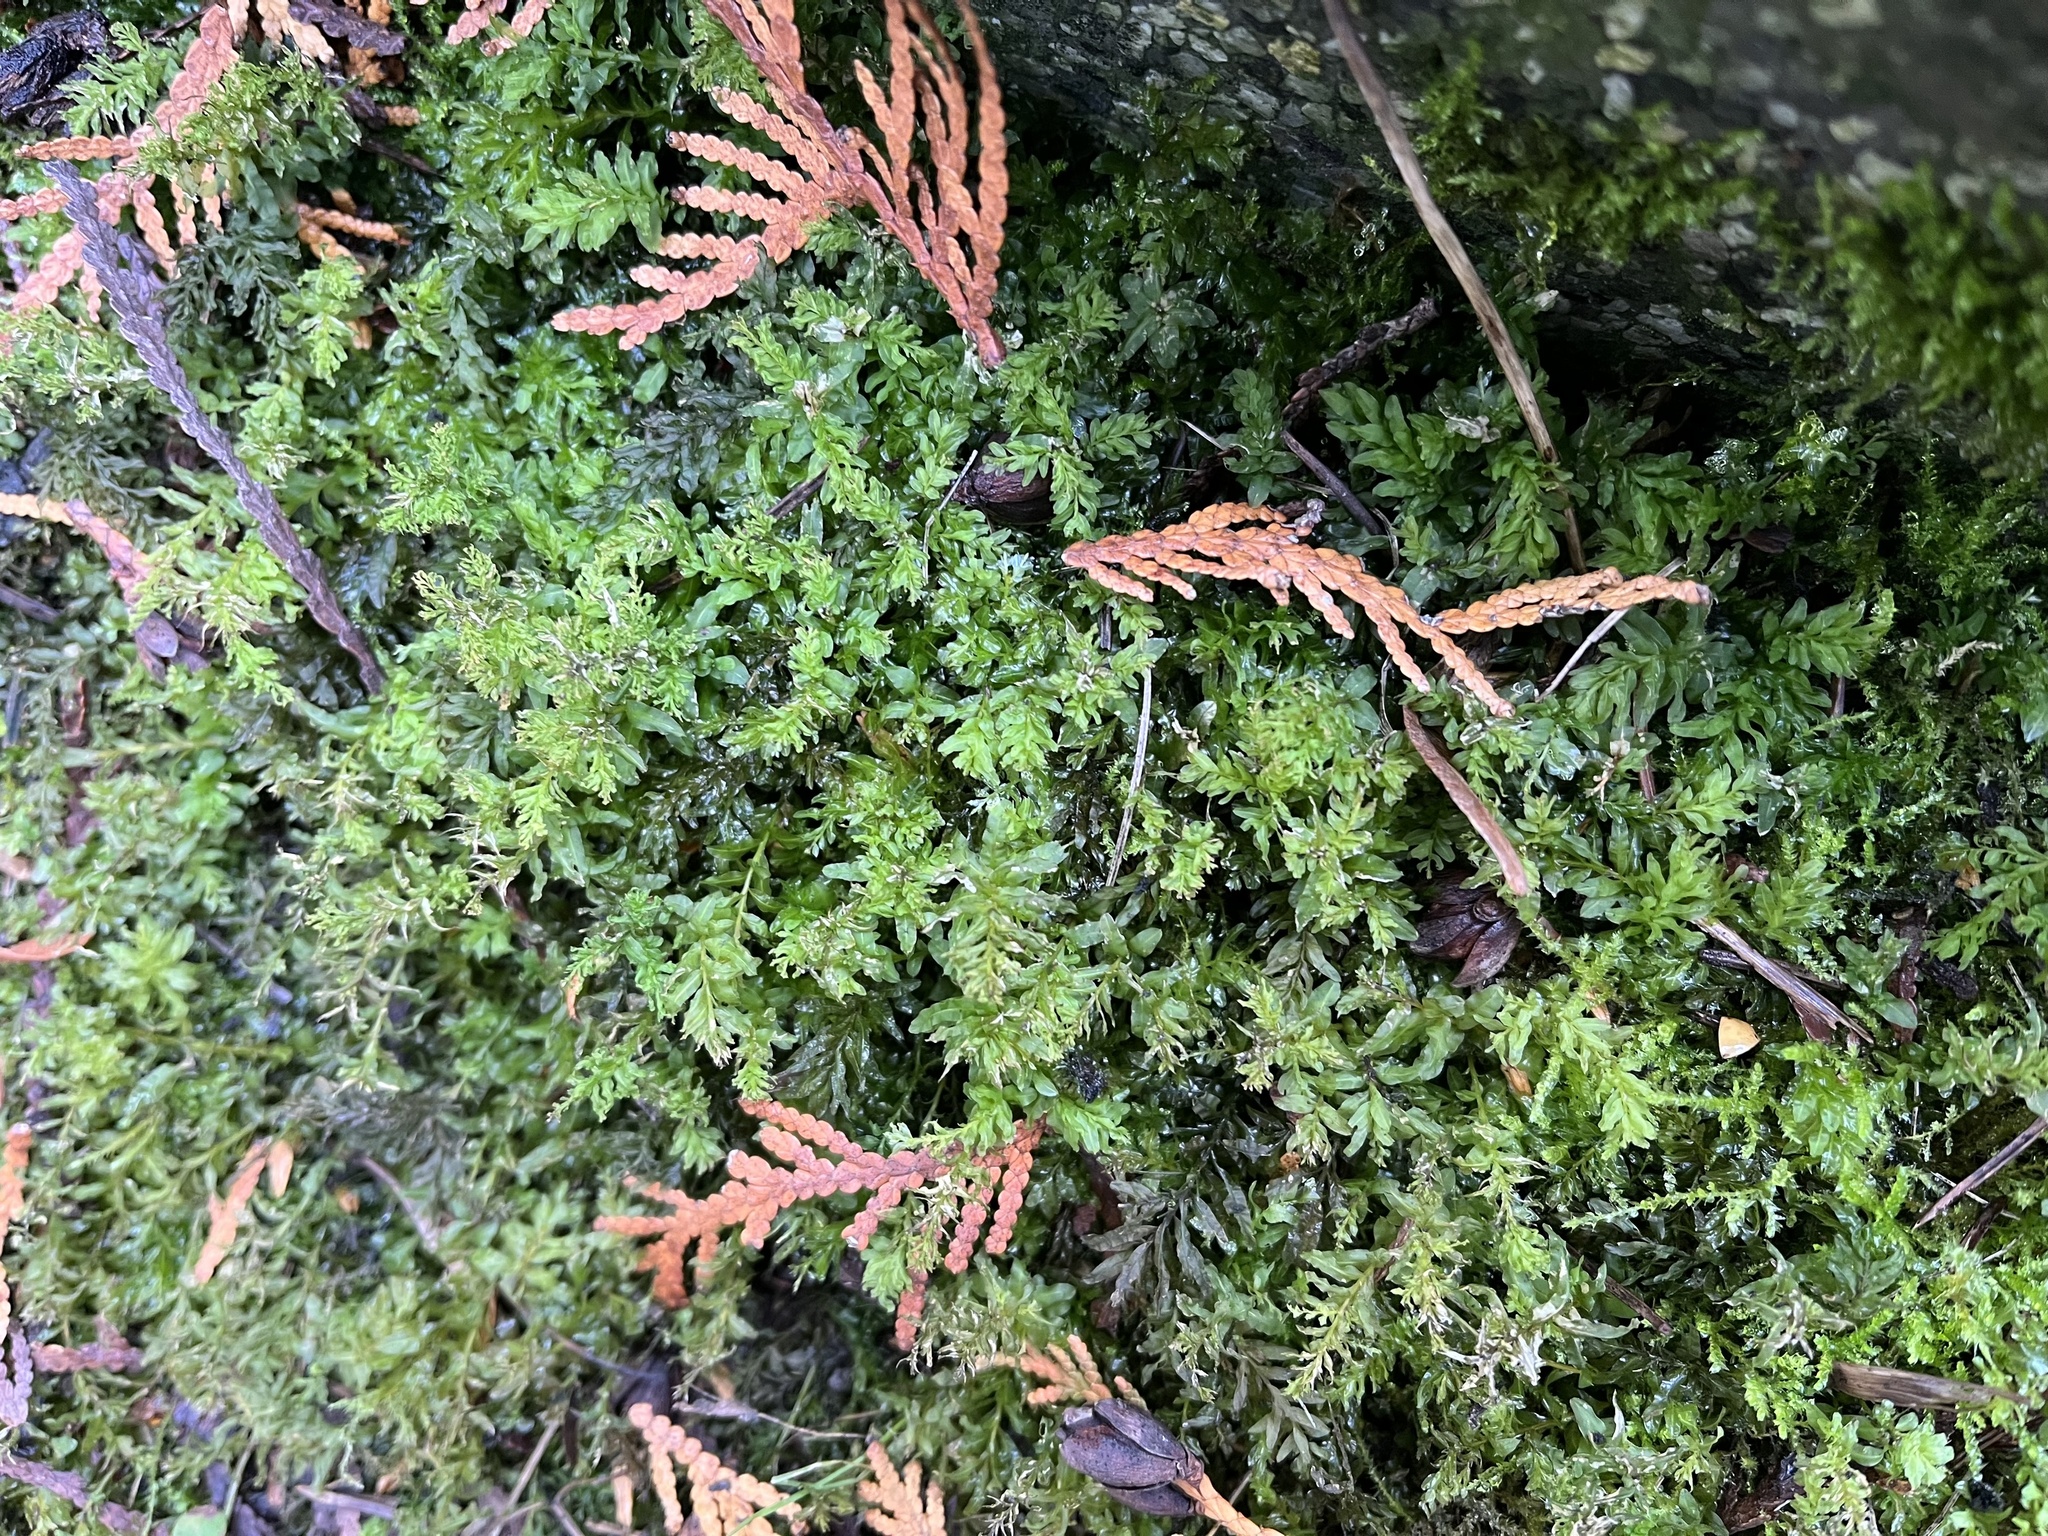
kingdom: Plantae
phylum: Bryophyta
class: Bryopsida
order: Bryales
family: Mniaceae
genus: Plagiomnium
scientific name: Plagiomnium undulatum
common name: Hart's-tongue thyme-moss
